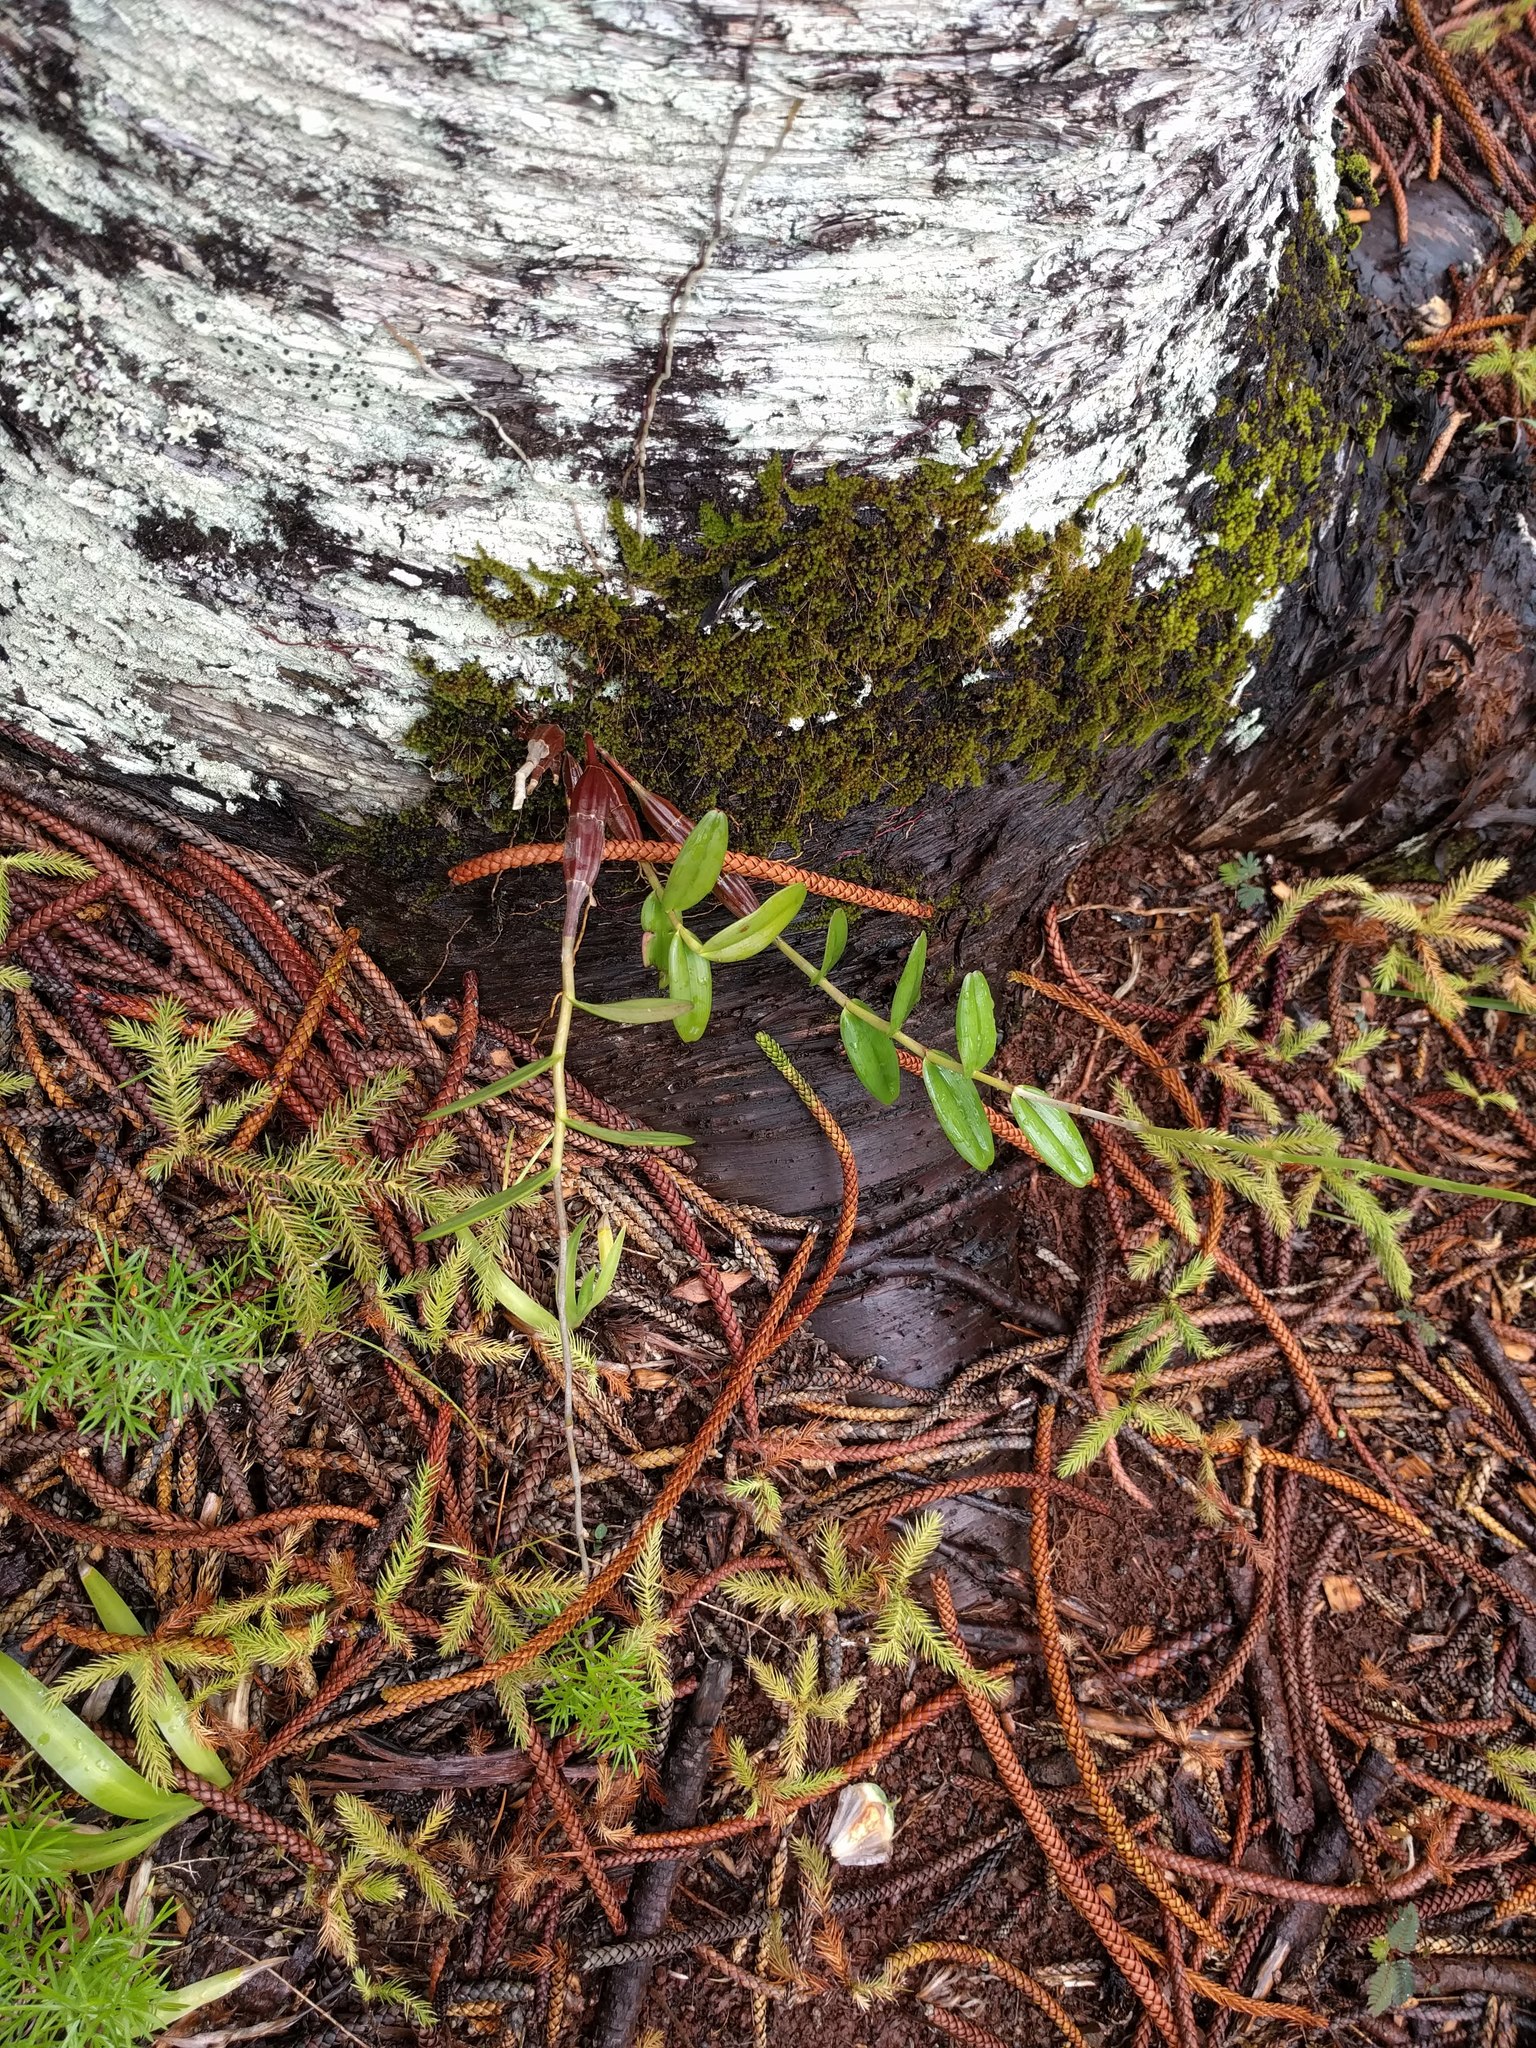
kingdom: Plantae
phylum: Tracheophyta
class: Liliopsida
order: Asparagales
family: Orchidaceae
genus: Epidendrum
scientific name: Epidendrum obrienianum
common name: O'brien's star orchid
